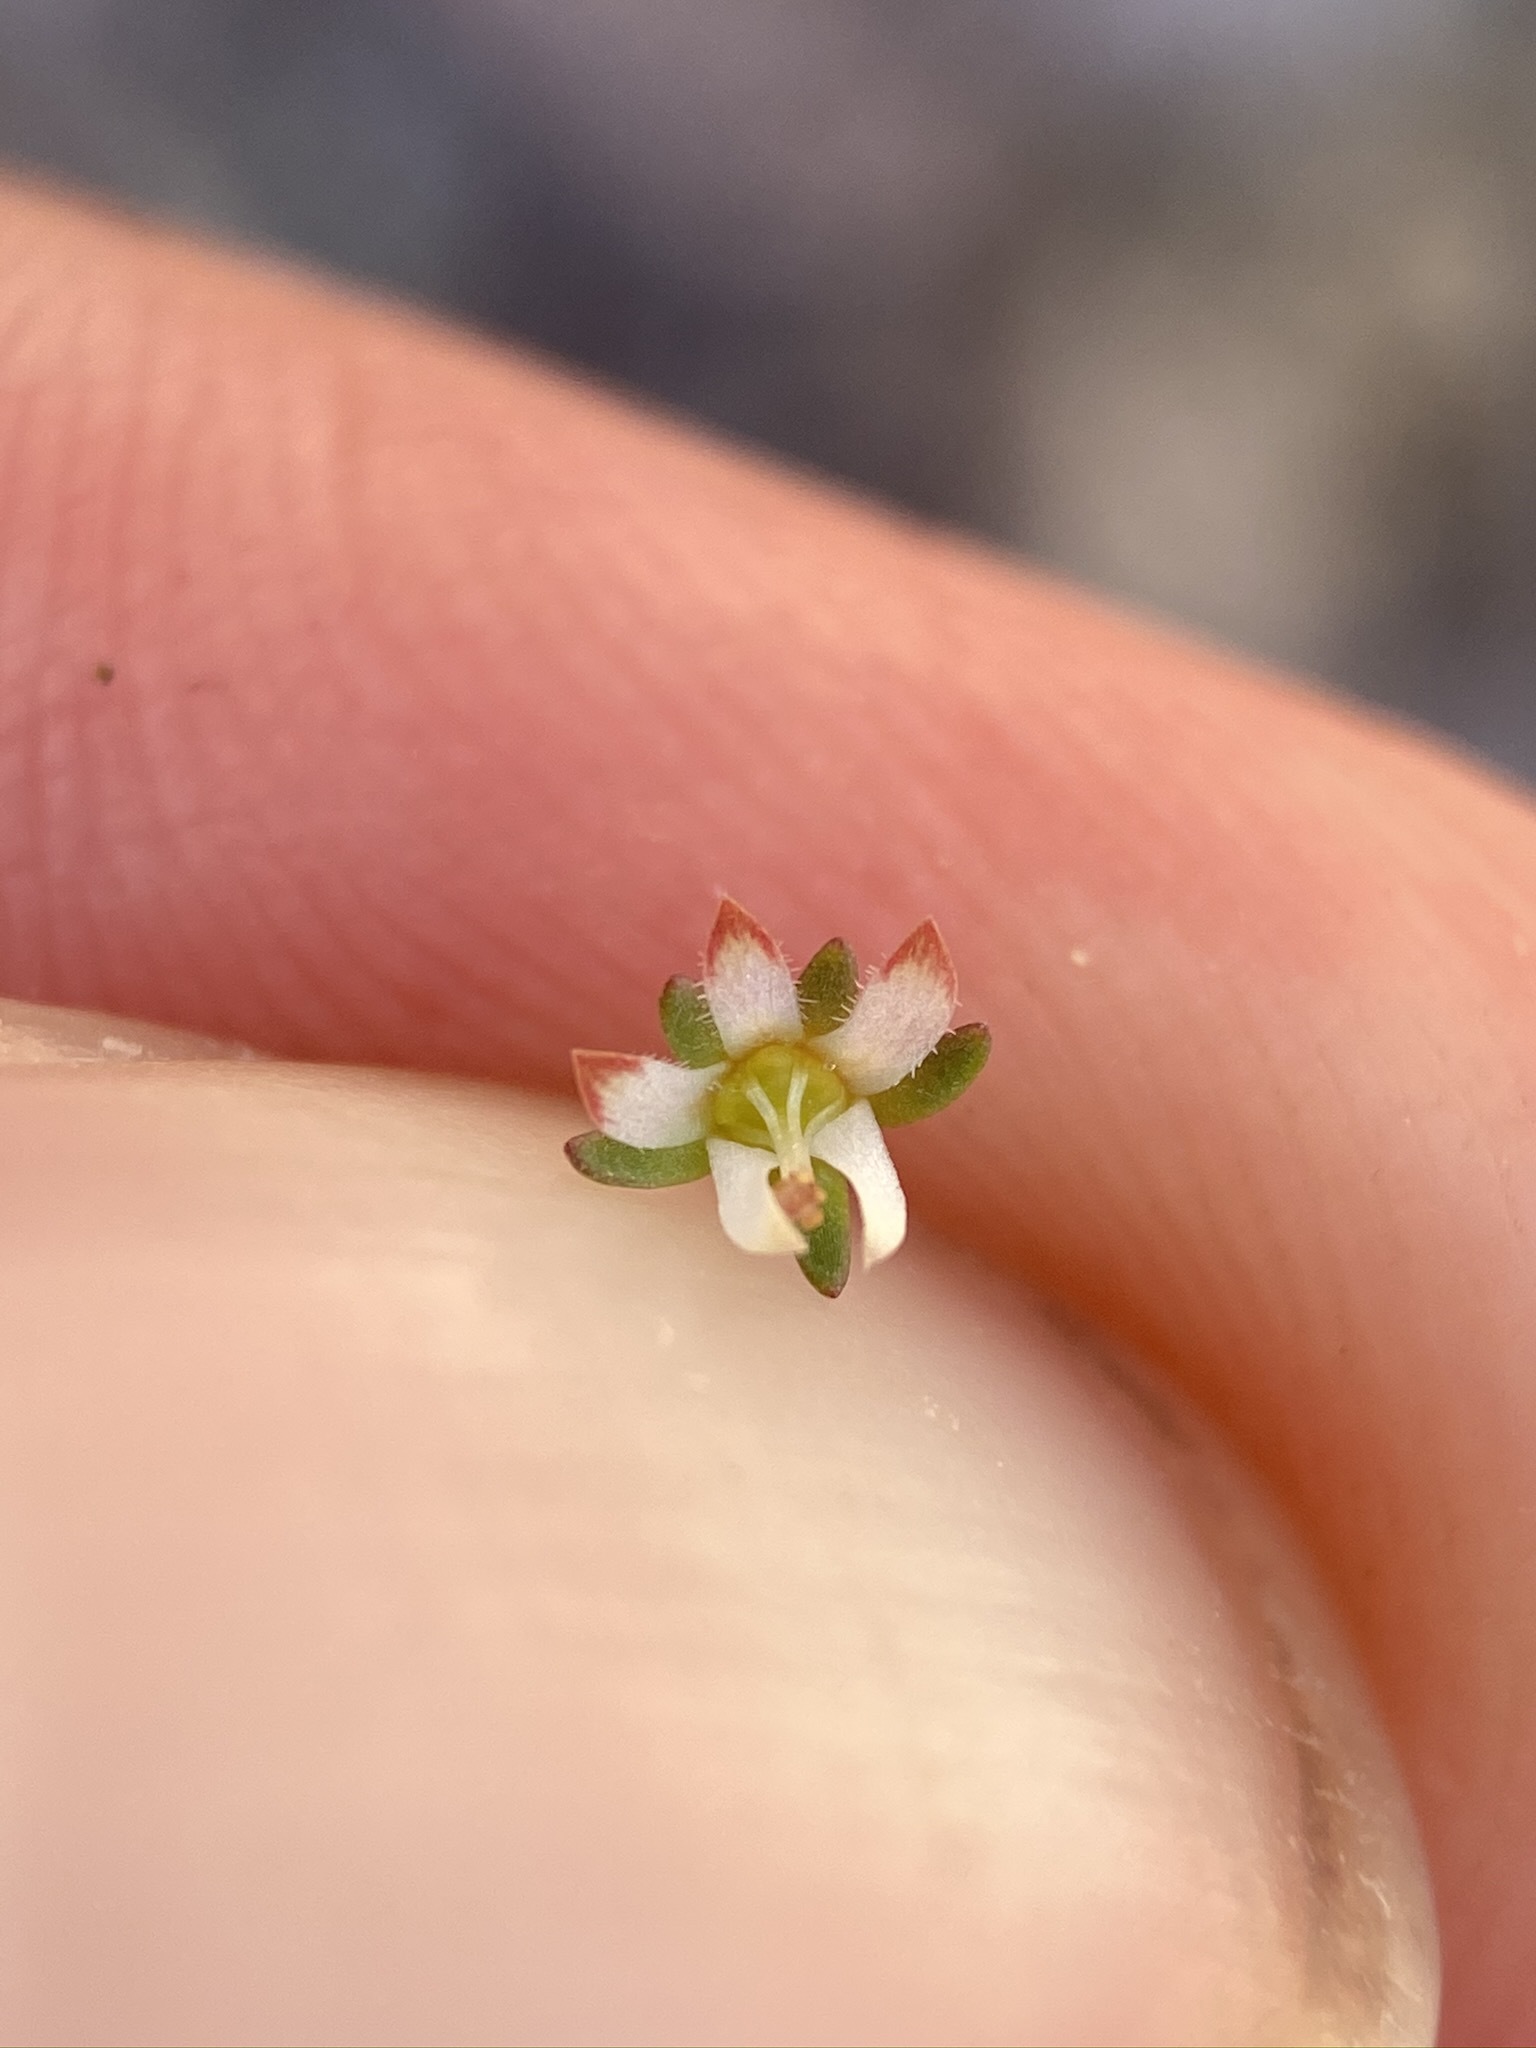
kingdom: Plantae
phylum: Tracheophyta
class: Magnoliopsida
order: Asterales
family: Campanulaceae
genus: Nemacladus
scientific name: Nemacladus morefieldii
